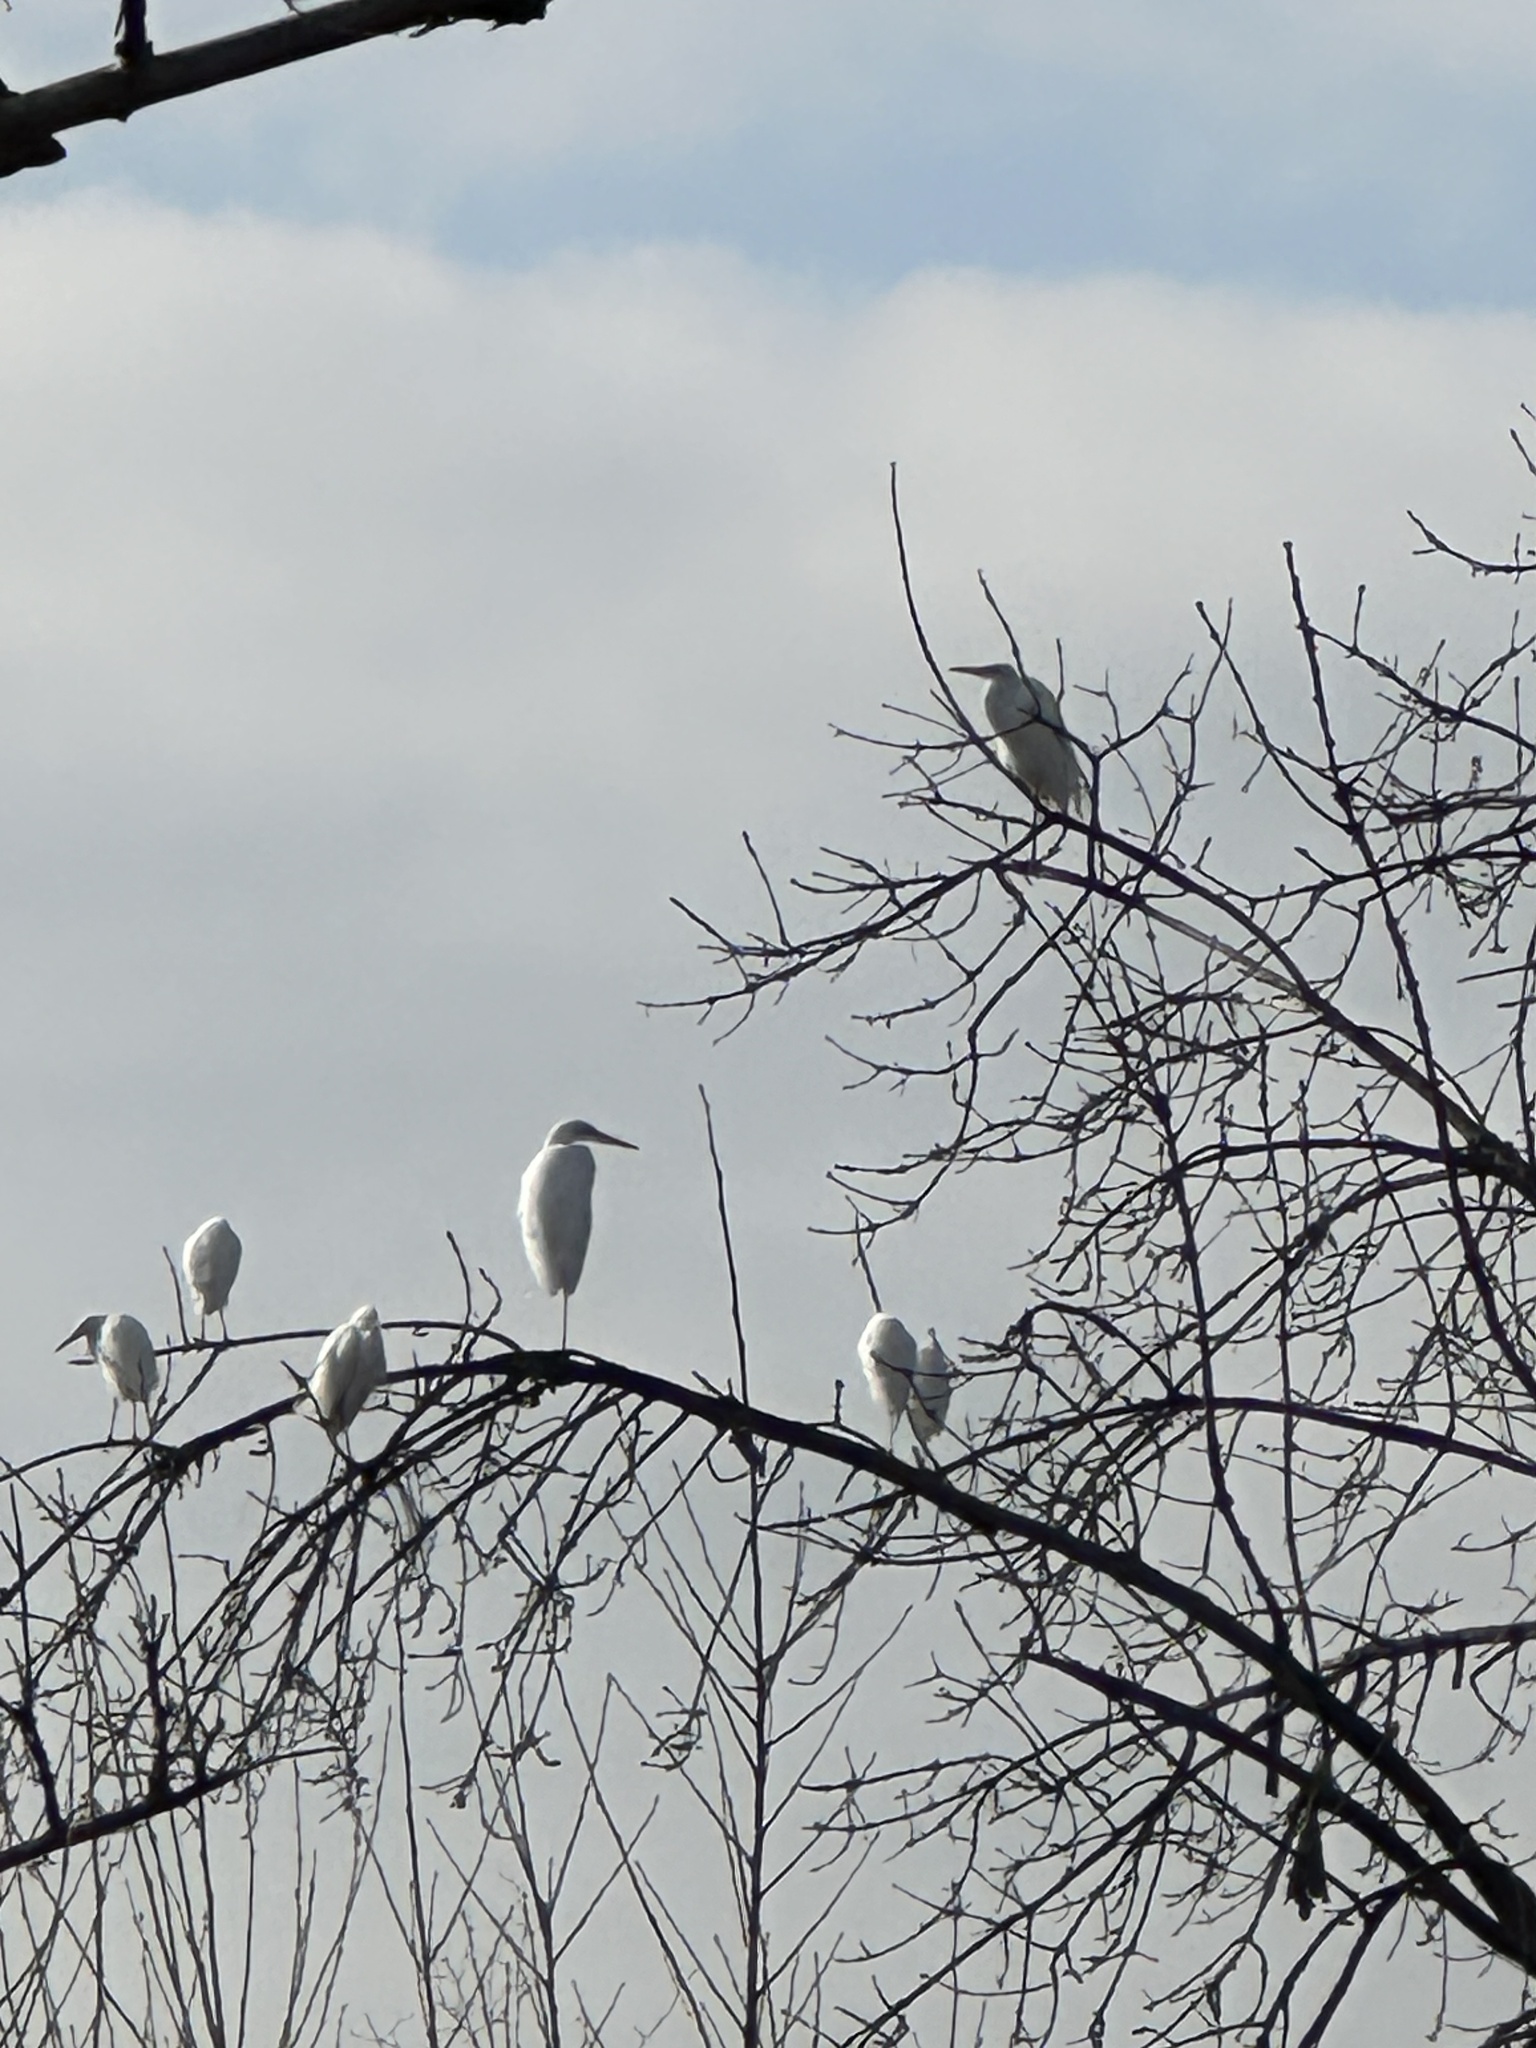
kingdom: Animalia
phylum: Chordata
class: Aves
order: Pelecaniformes
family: Ardeidae
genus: Egretta
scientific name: Egretta thula
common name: Snowy egret
